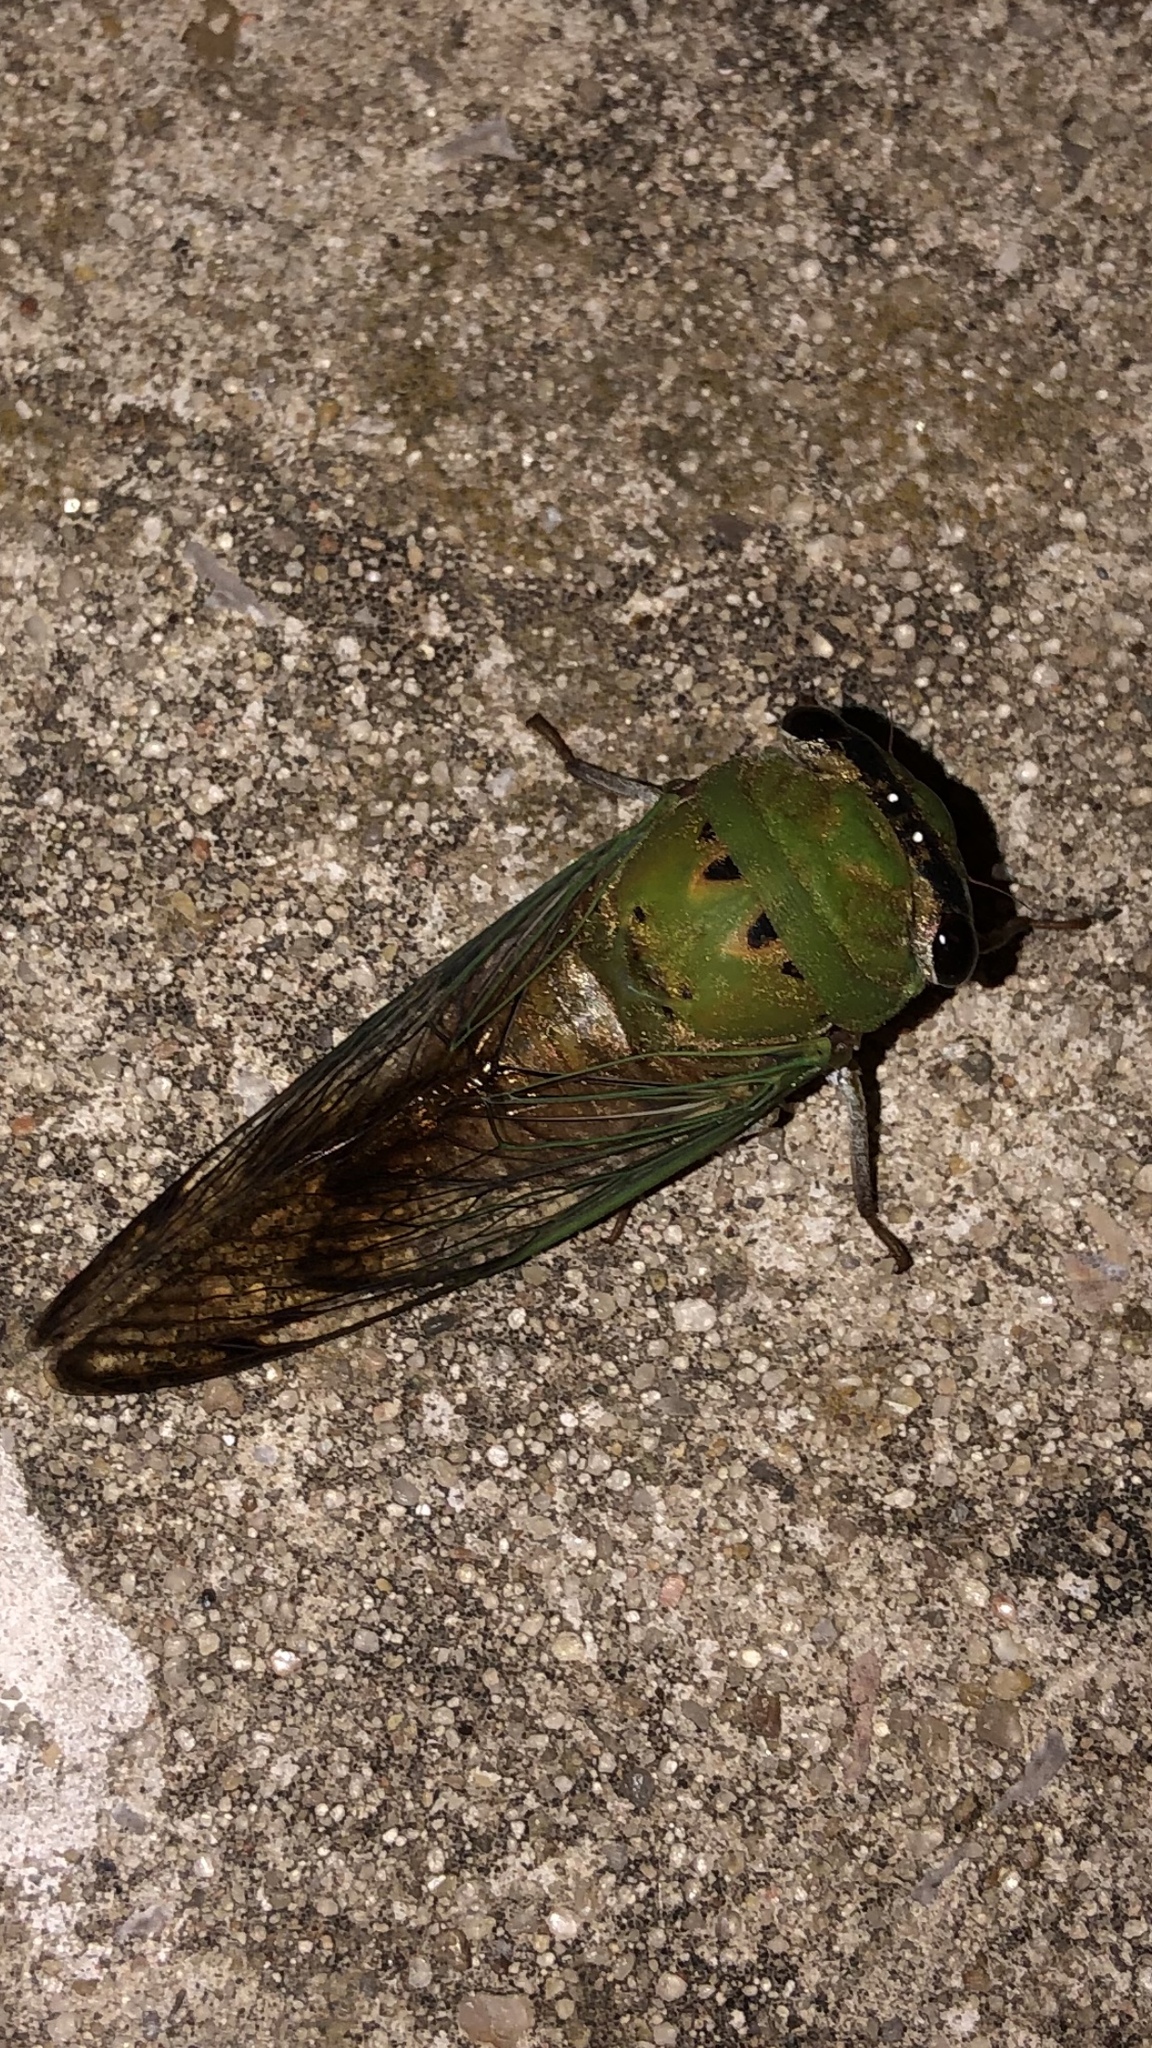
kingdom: Animalia
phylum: Arthropoda
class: Insecta
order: Hemiptera
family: Cicadidae
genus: Neotibicen
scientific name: Neotibicen superbus
